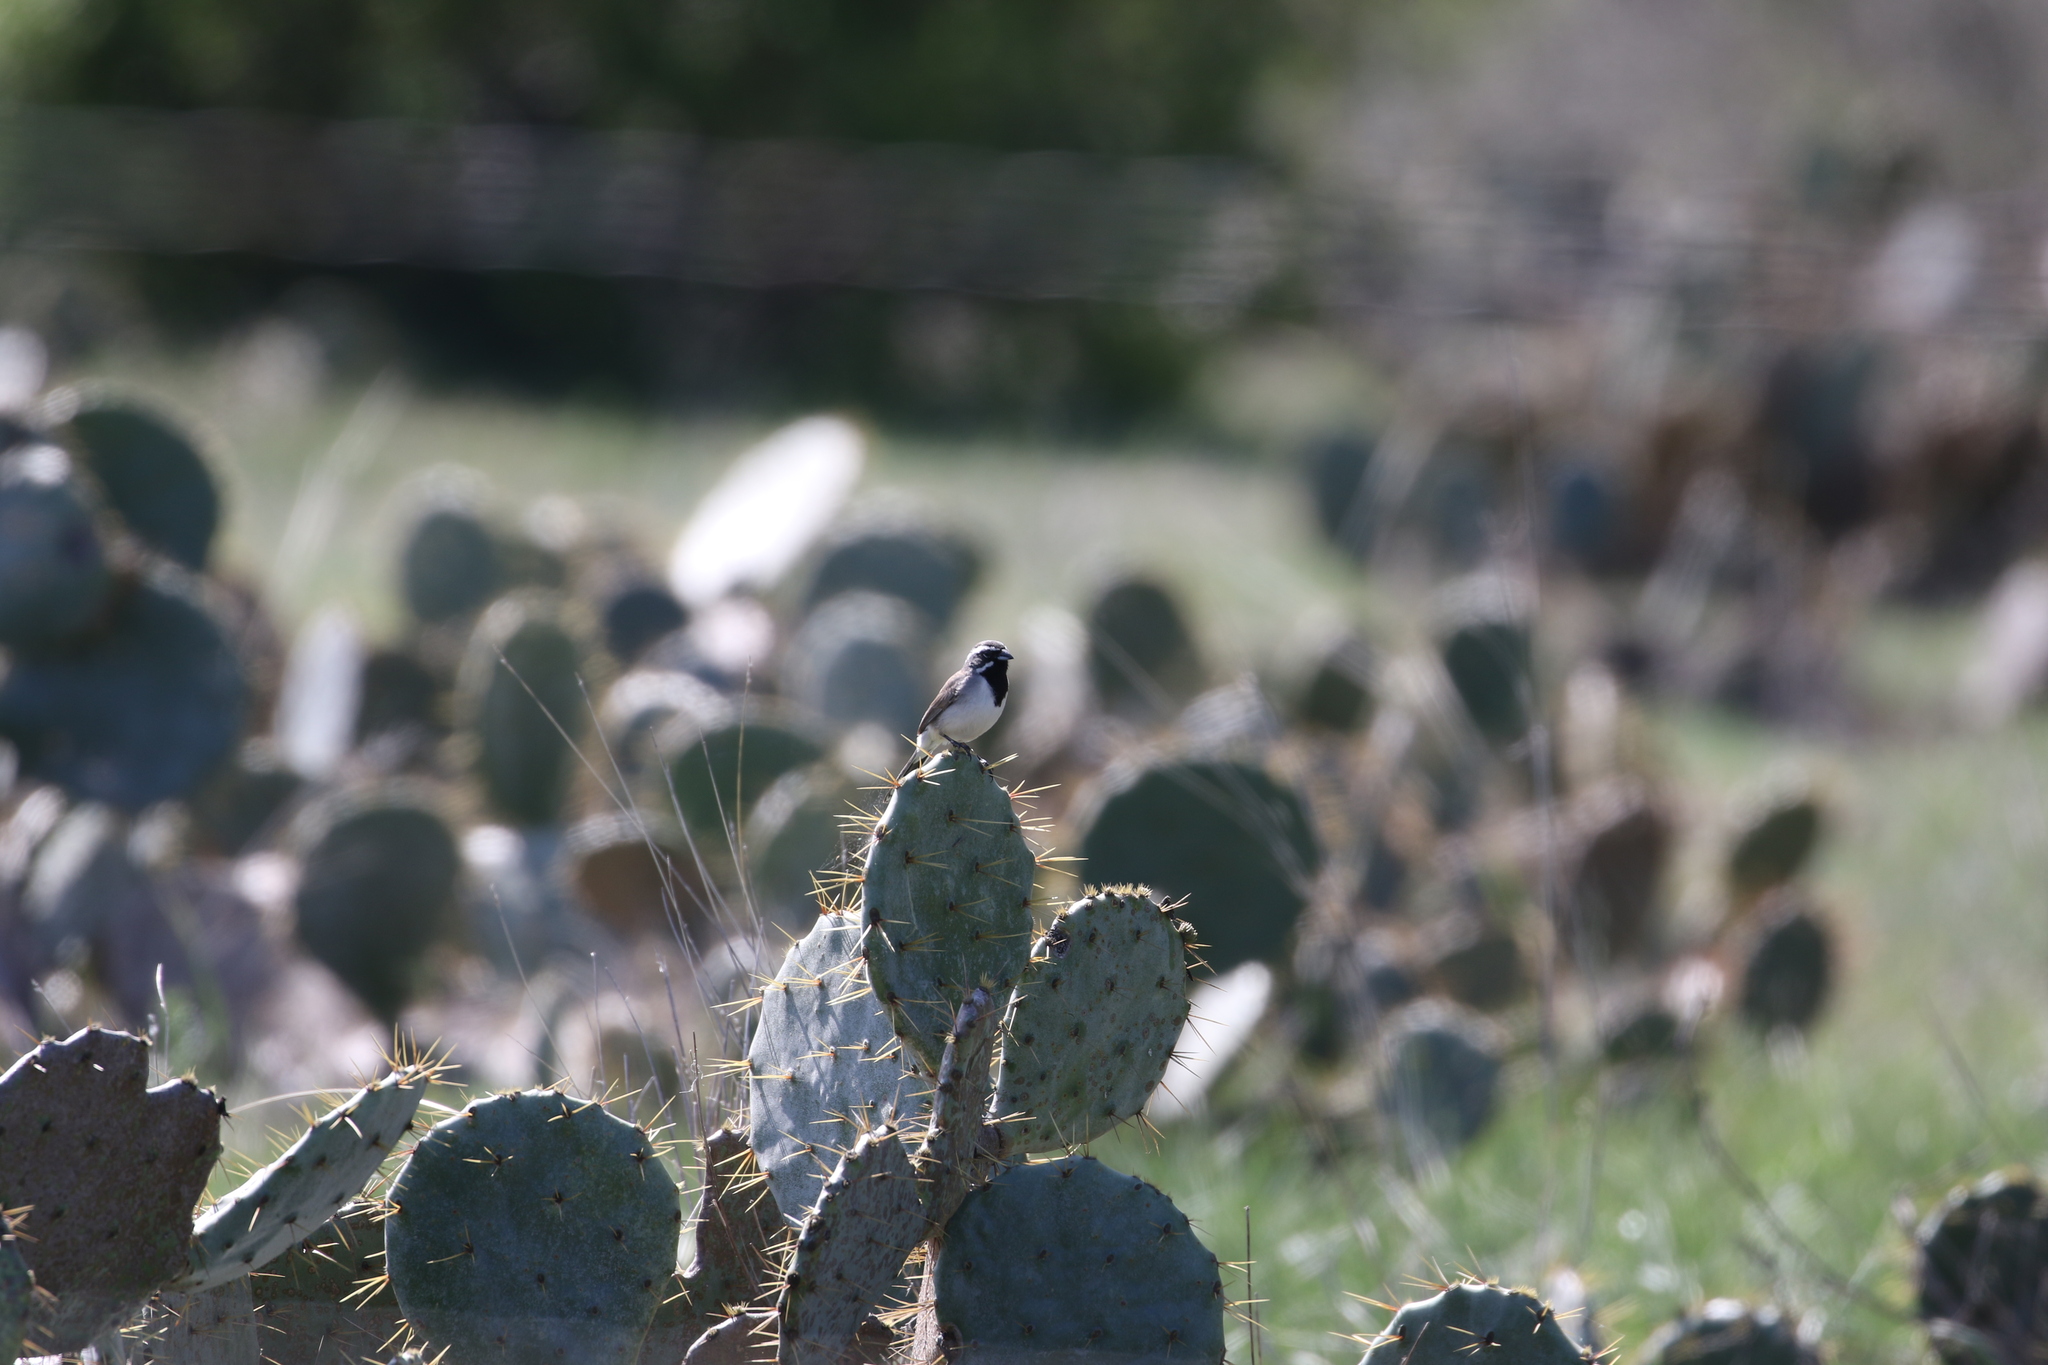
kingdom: Animalia
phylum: Chordata
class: Aves
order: Passeriformes
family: Passerellidae
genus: Amphispiza
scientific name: Amphispiza bilineata
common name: Black-throated sparrow
